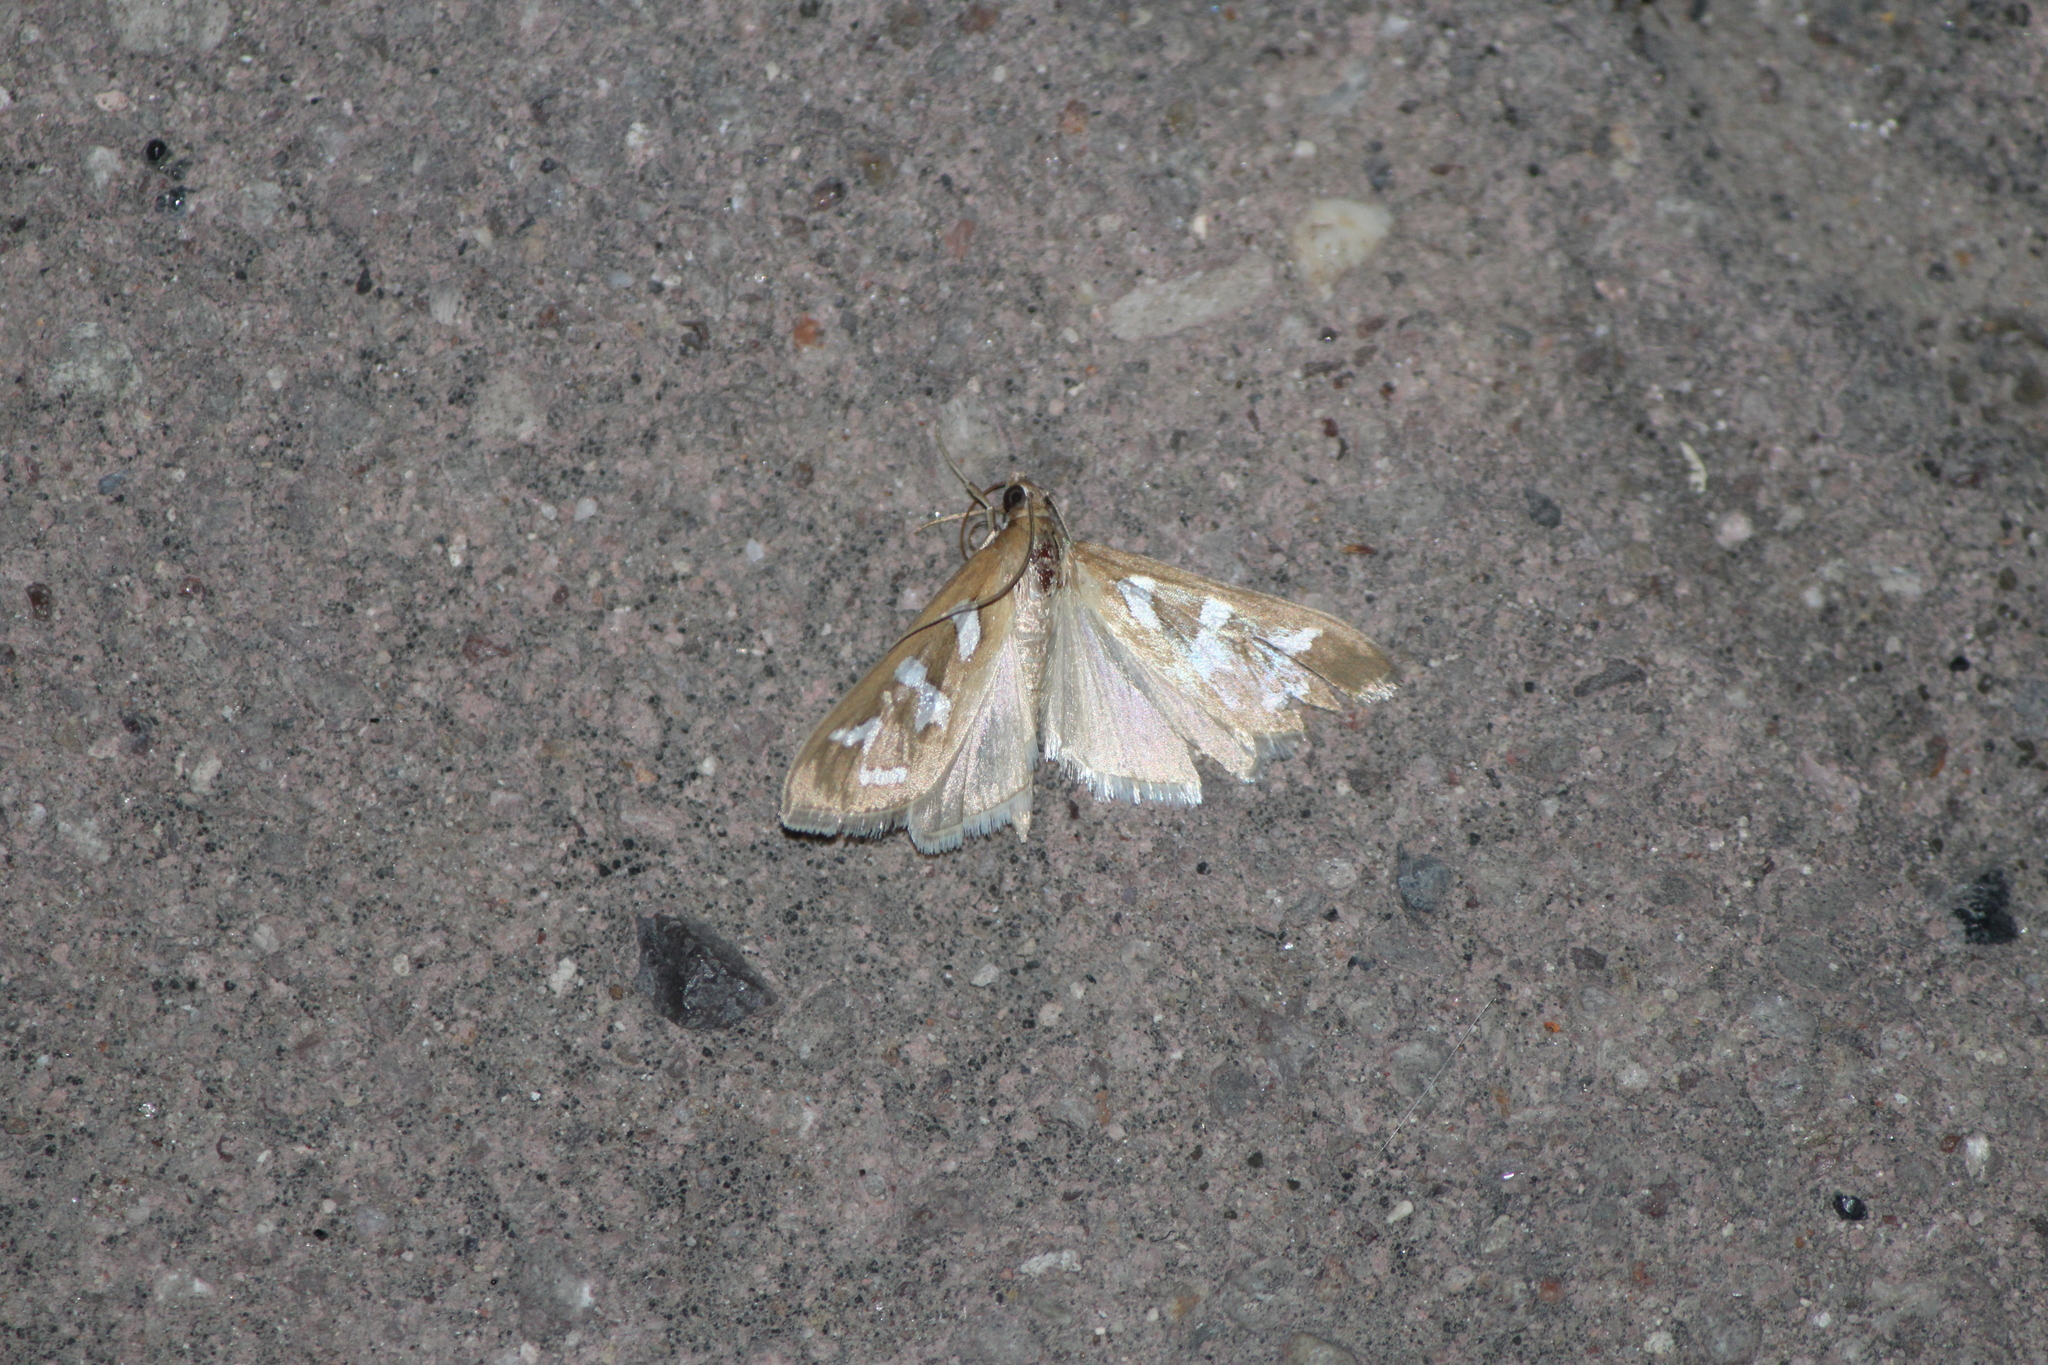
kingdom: Animalia
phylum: Arthropoda
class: Insecta
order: Lepidoptera
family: Crambidae
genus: Diastictis
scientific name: Diastictis fracturalis
